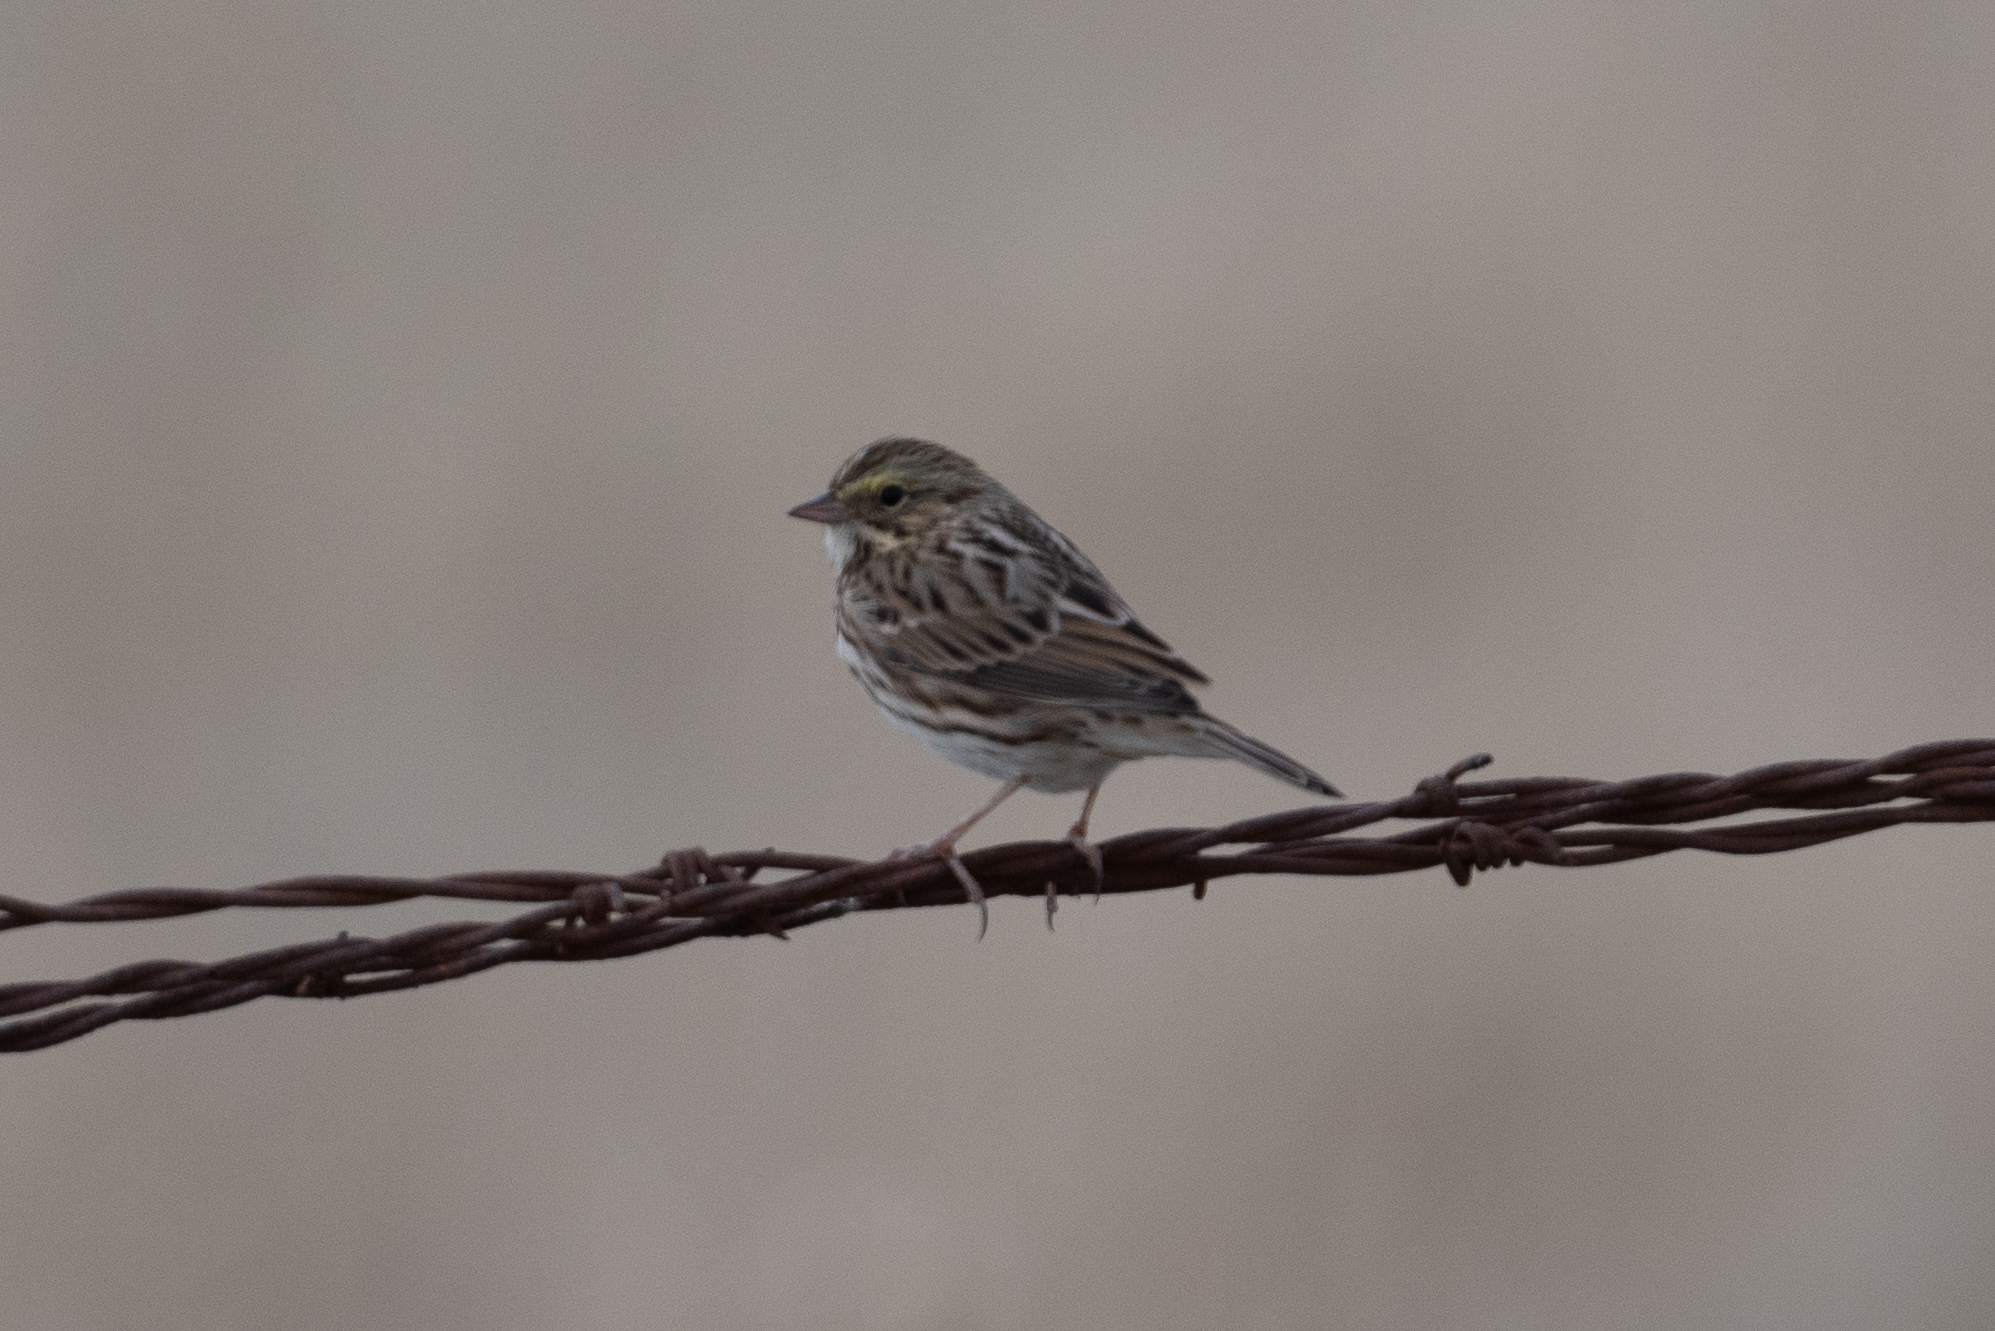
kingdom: Animalia
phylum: Chordata
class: Aves
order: Passeriformes
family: Passerellidae
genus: Passerculus
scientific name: Passerculus sandwichensis
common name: Savannah sparrow
